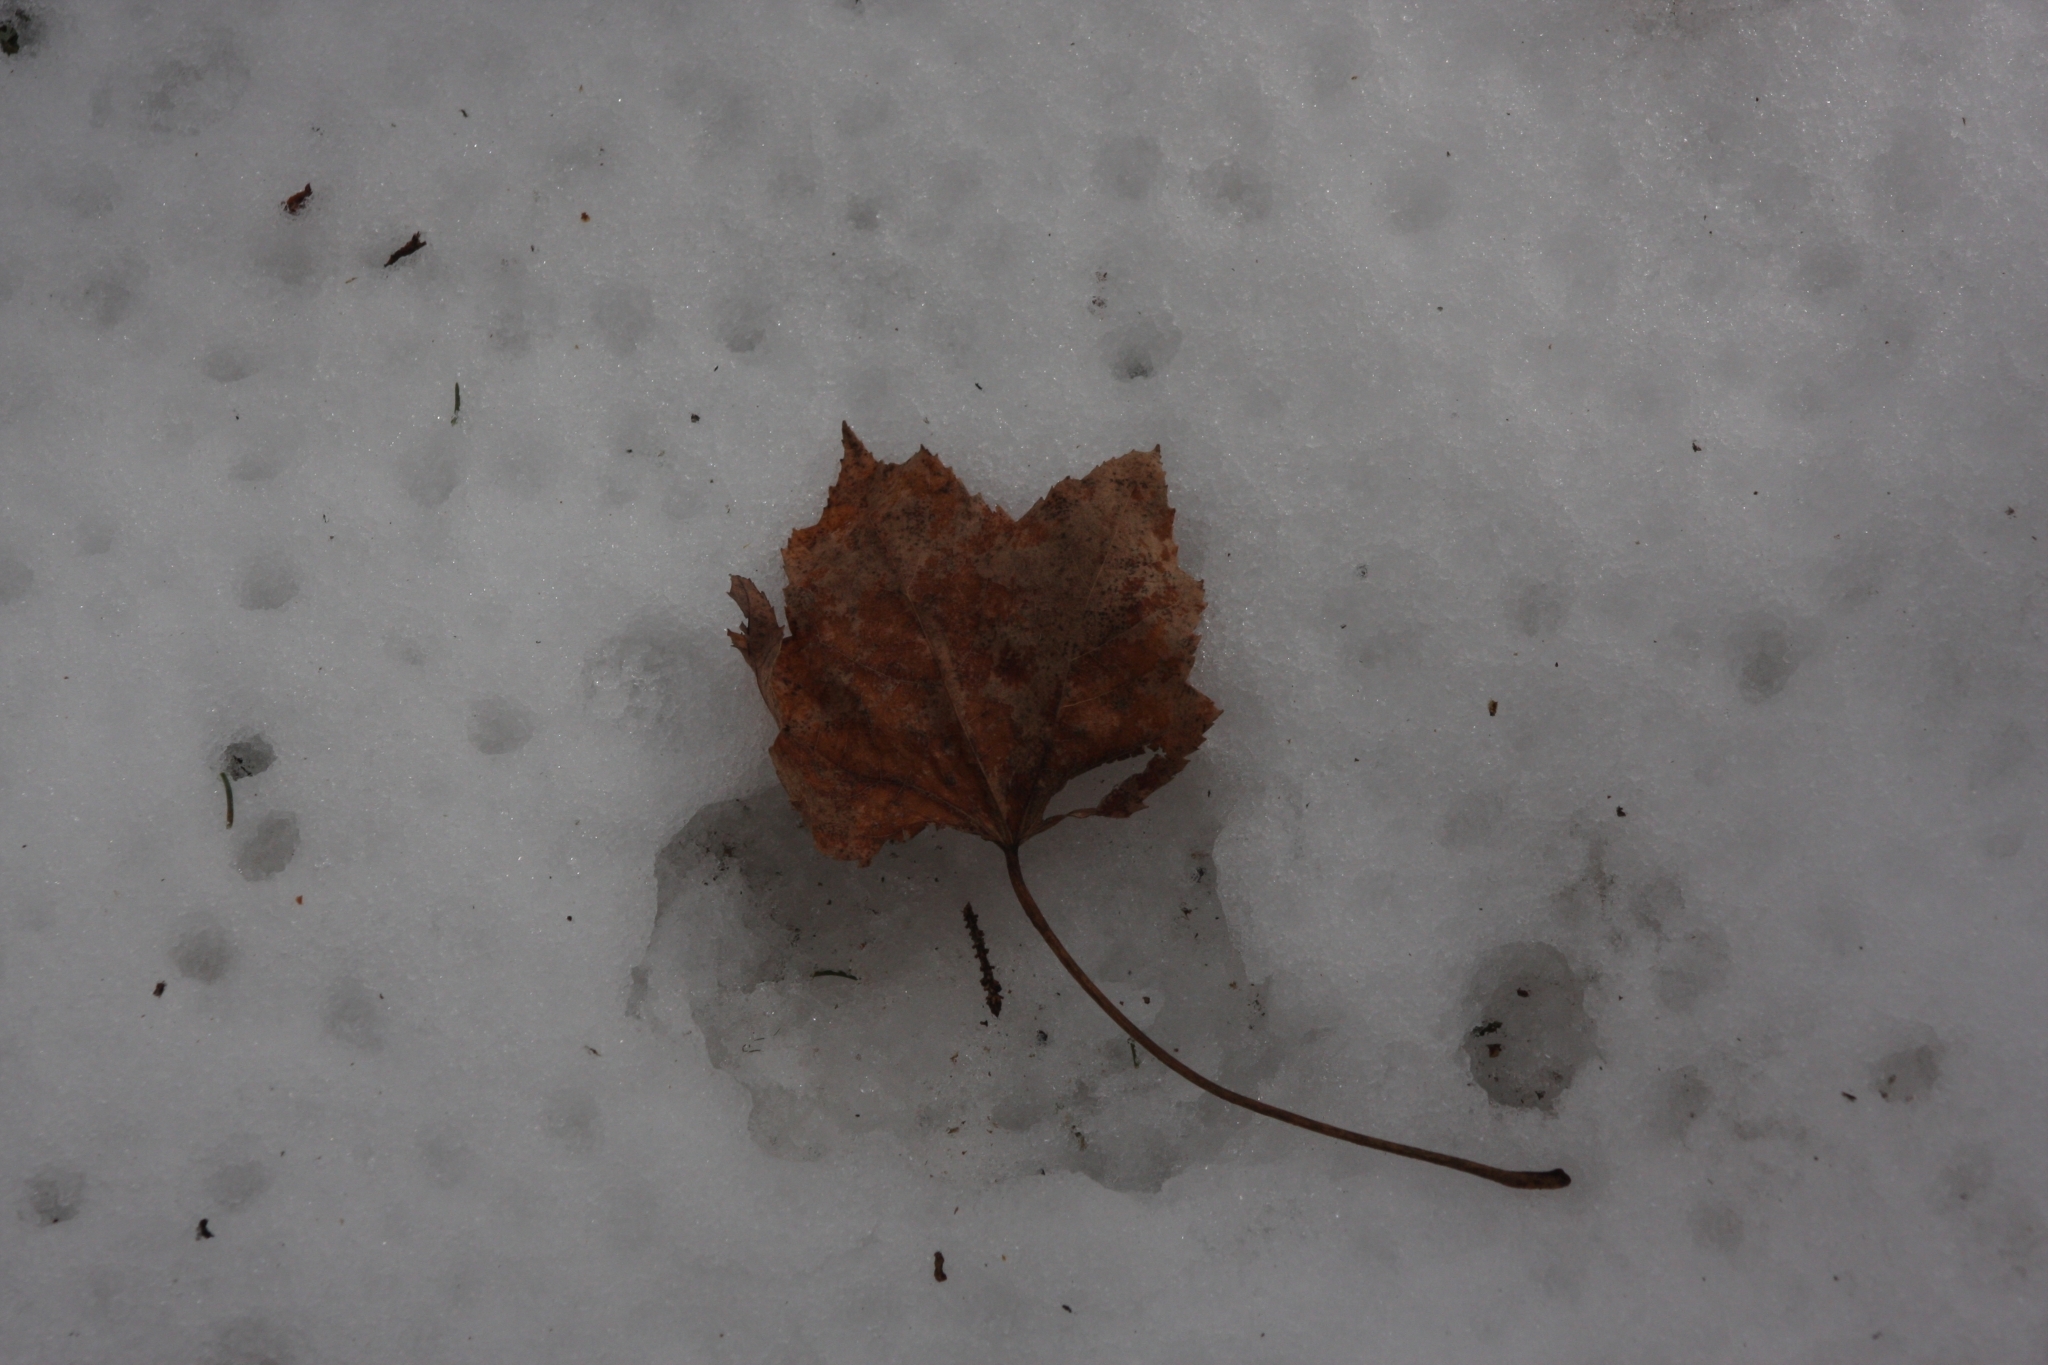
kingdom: Plantae
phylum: Tracheophyta
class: Magnoliopsida
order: Sapindales
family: Sapindaceae
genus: Acer
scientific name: Acer rubrum
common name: Red maple
